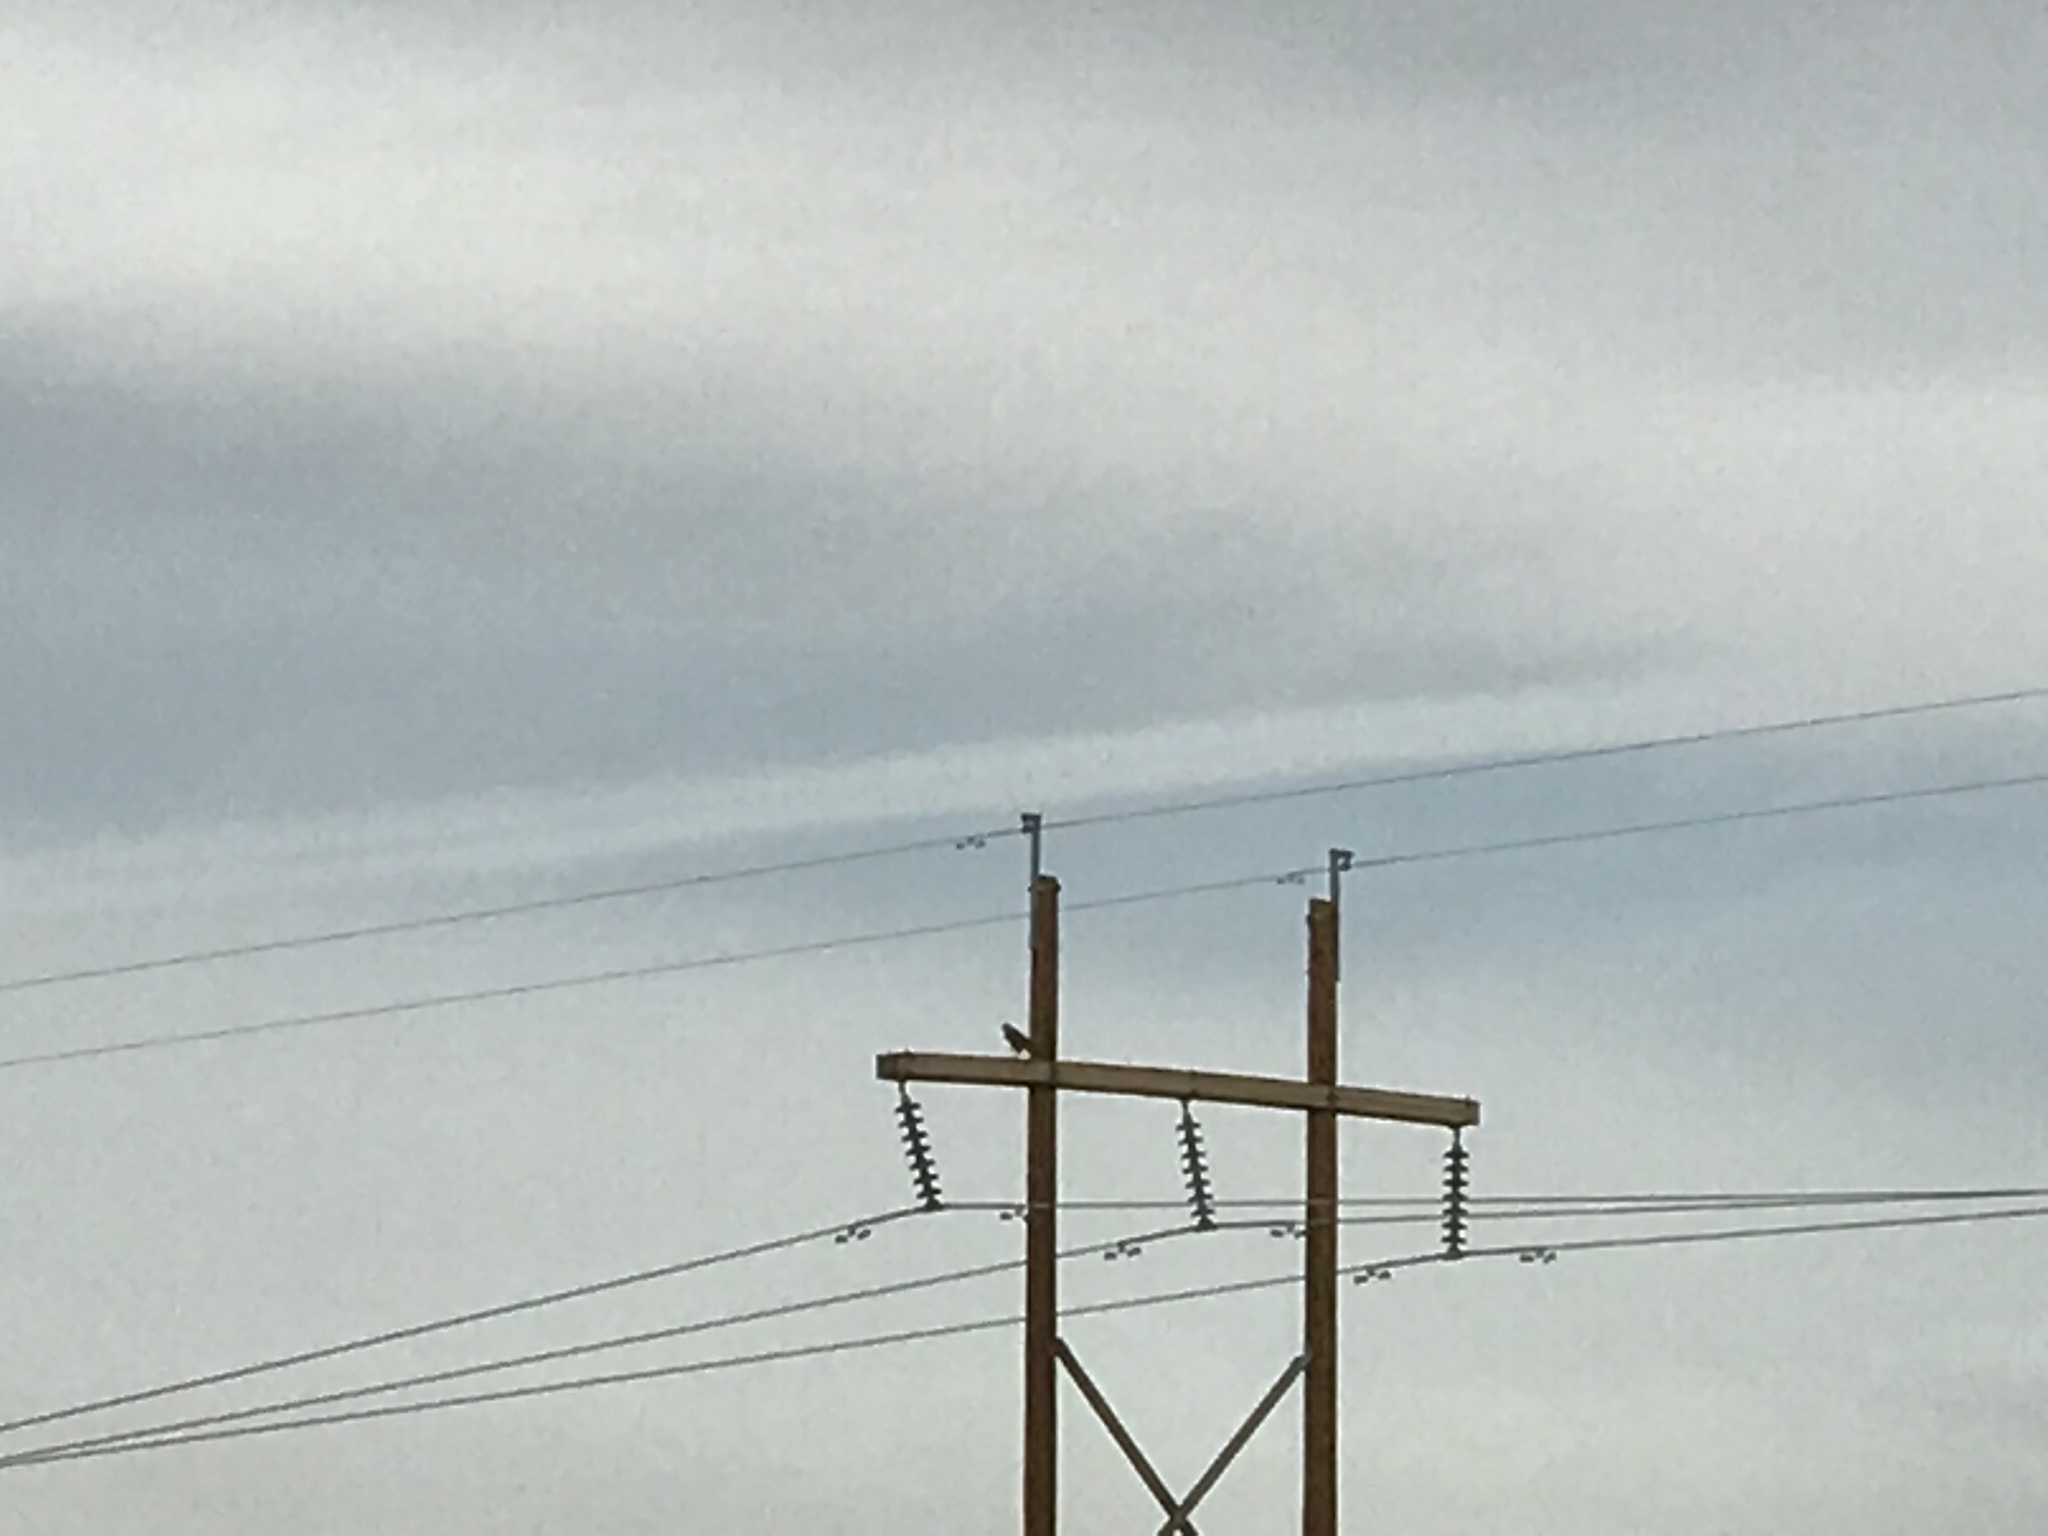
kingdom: Animalia
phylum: Chordata
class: Aves
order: Accipitriformes
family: Accipitridae
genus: Buteo
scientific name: Buteo jamaicensis
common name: Red-tailed hawk
